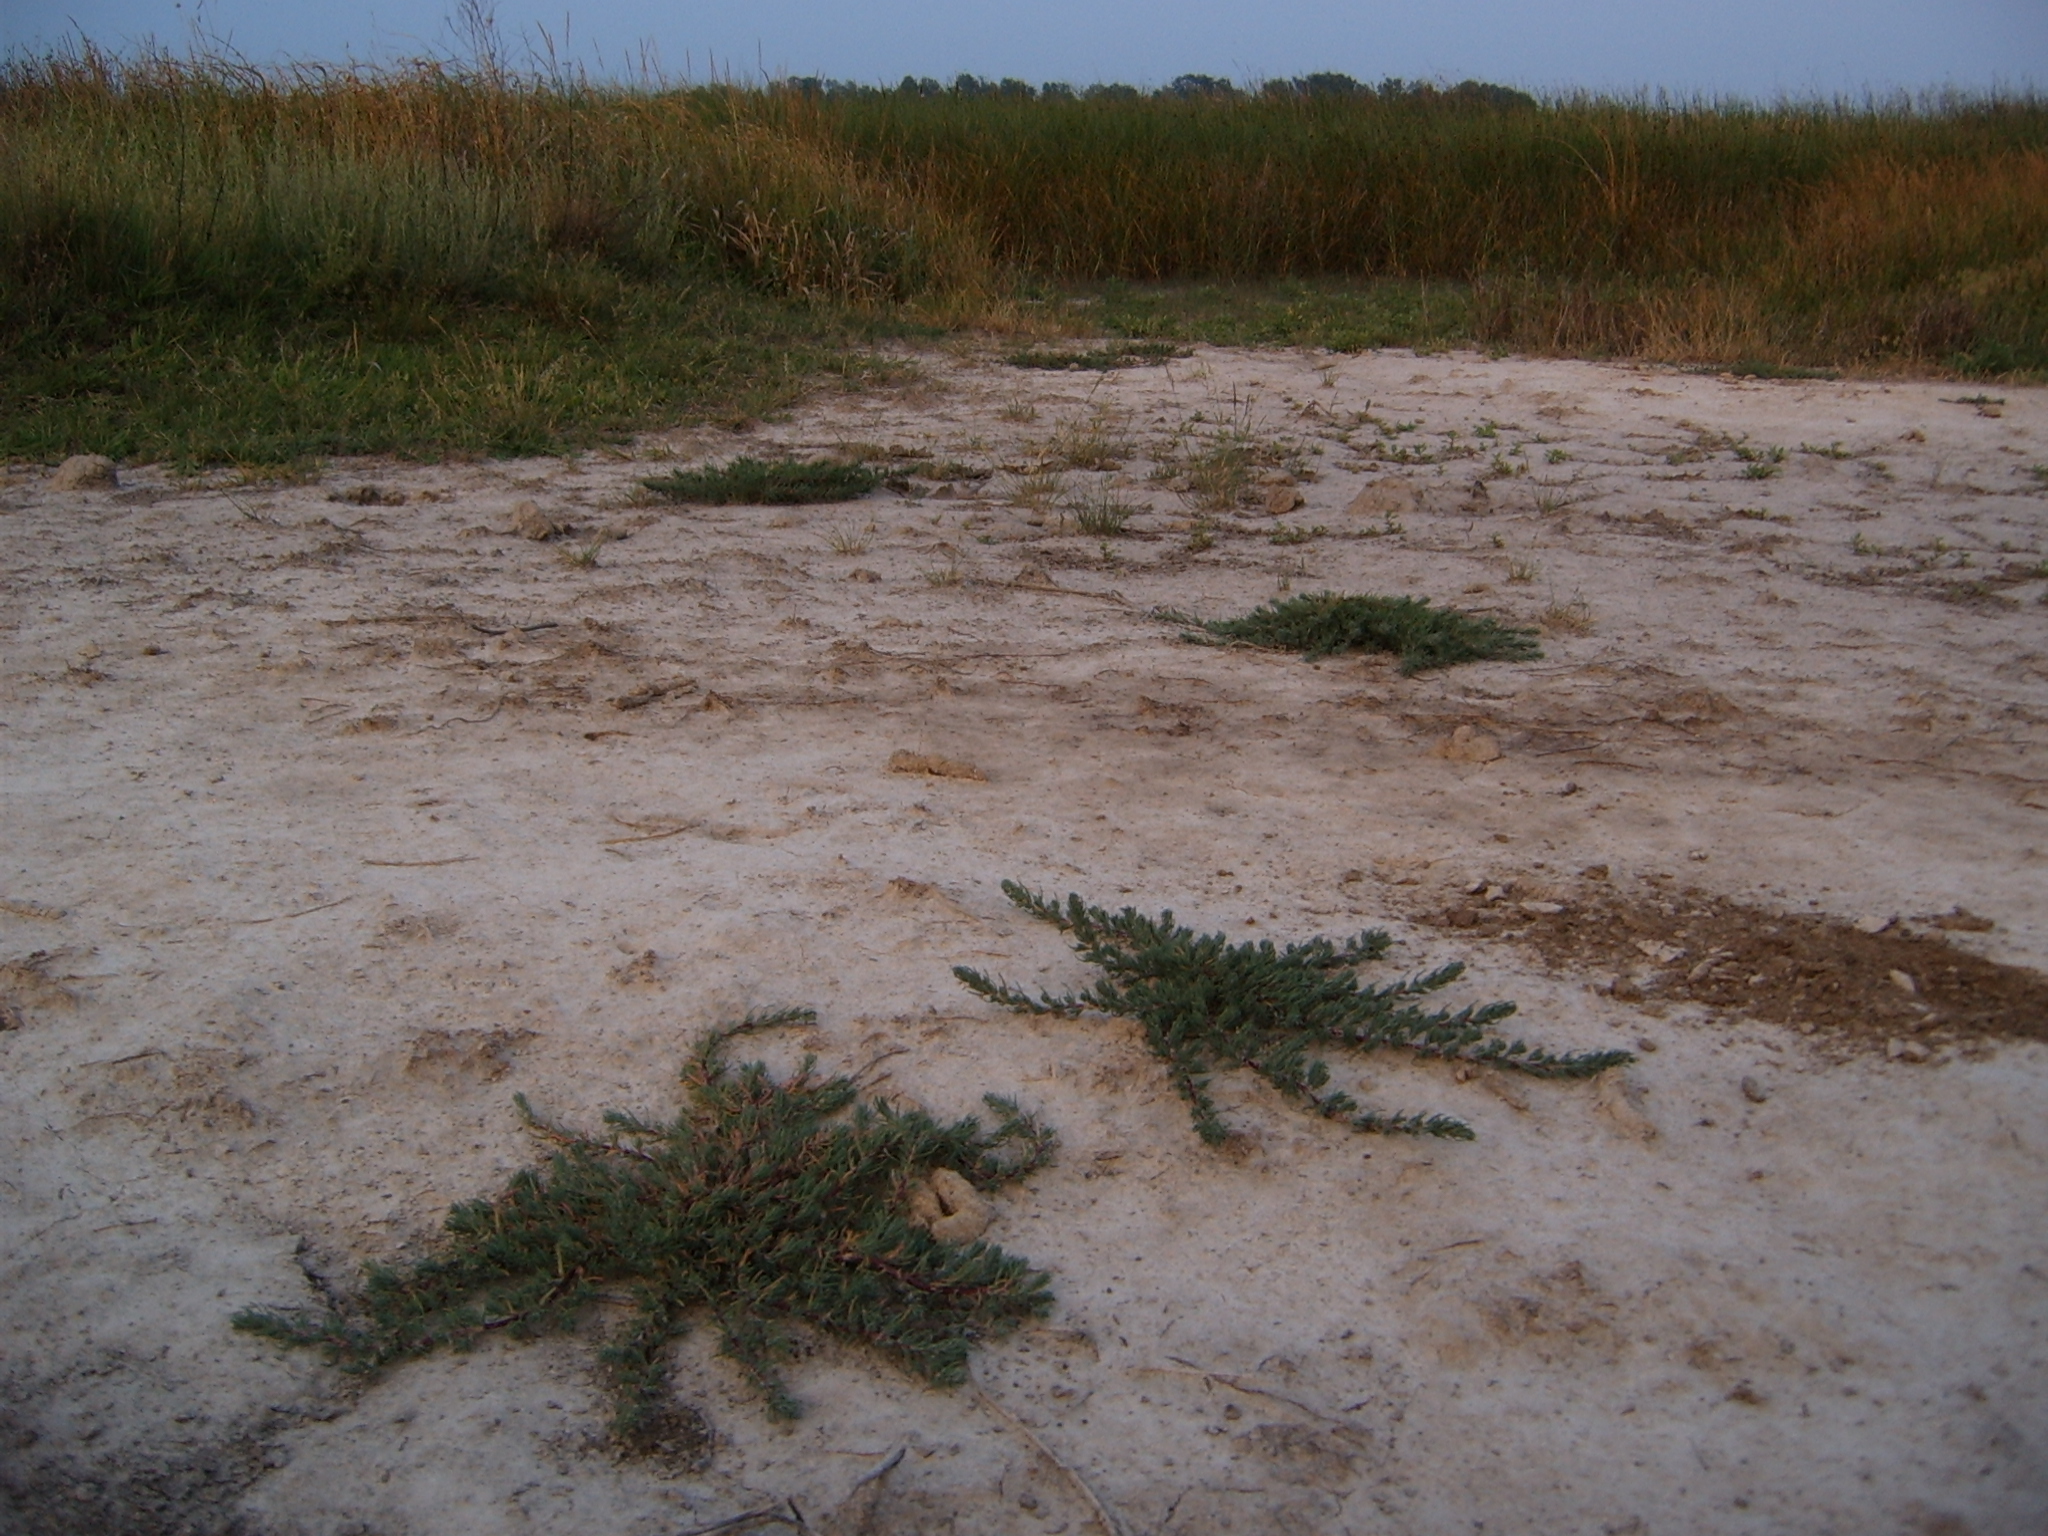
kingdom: Plantae
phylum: Tracheophyta
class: Magnoliopsida
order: Caryophyllales
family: Amaranthaceae
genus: Camphorosma
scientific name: Camphorosma annua
